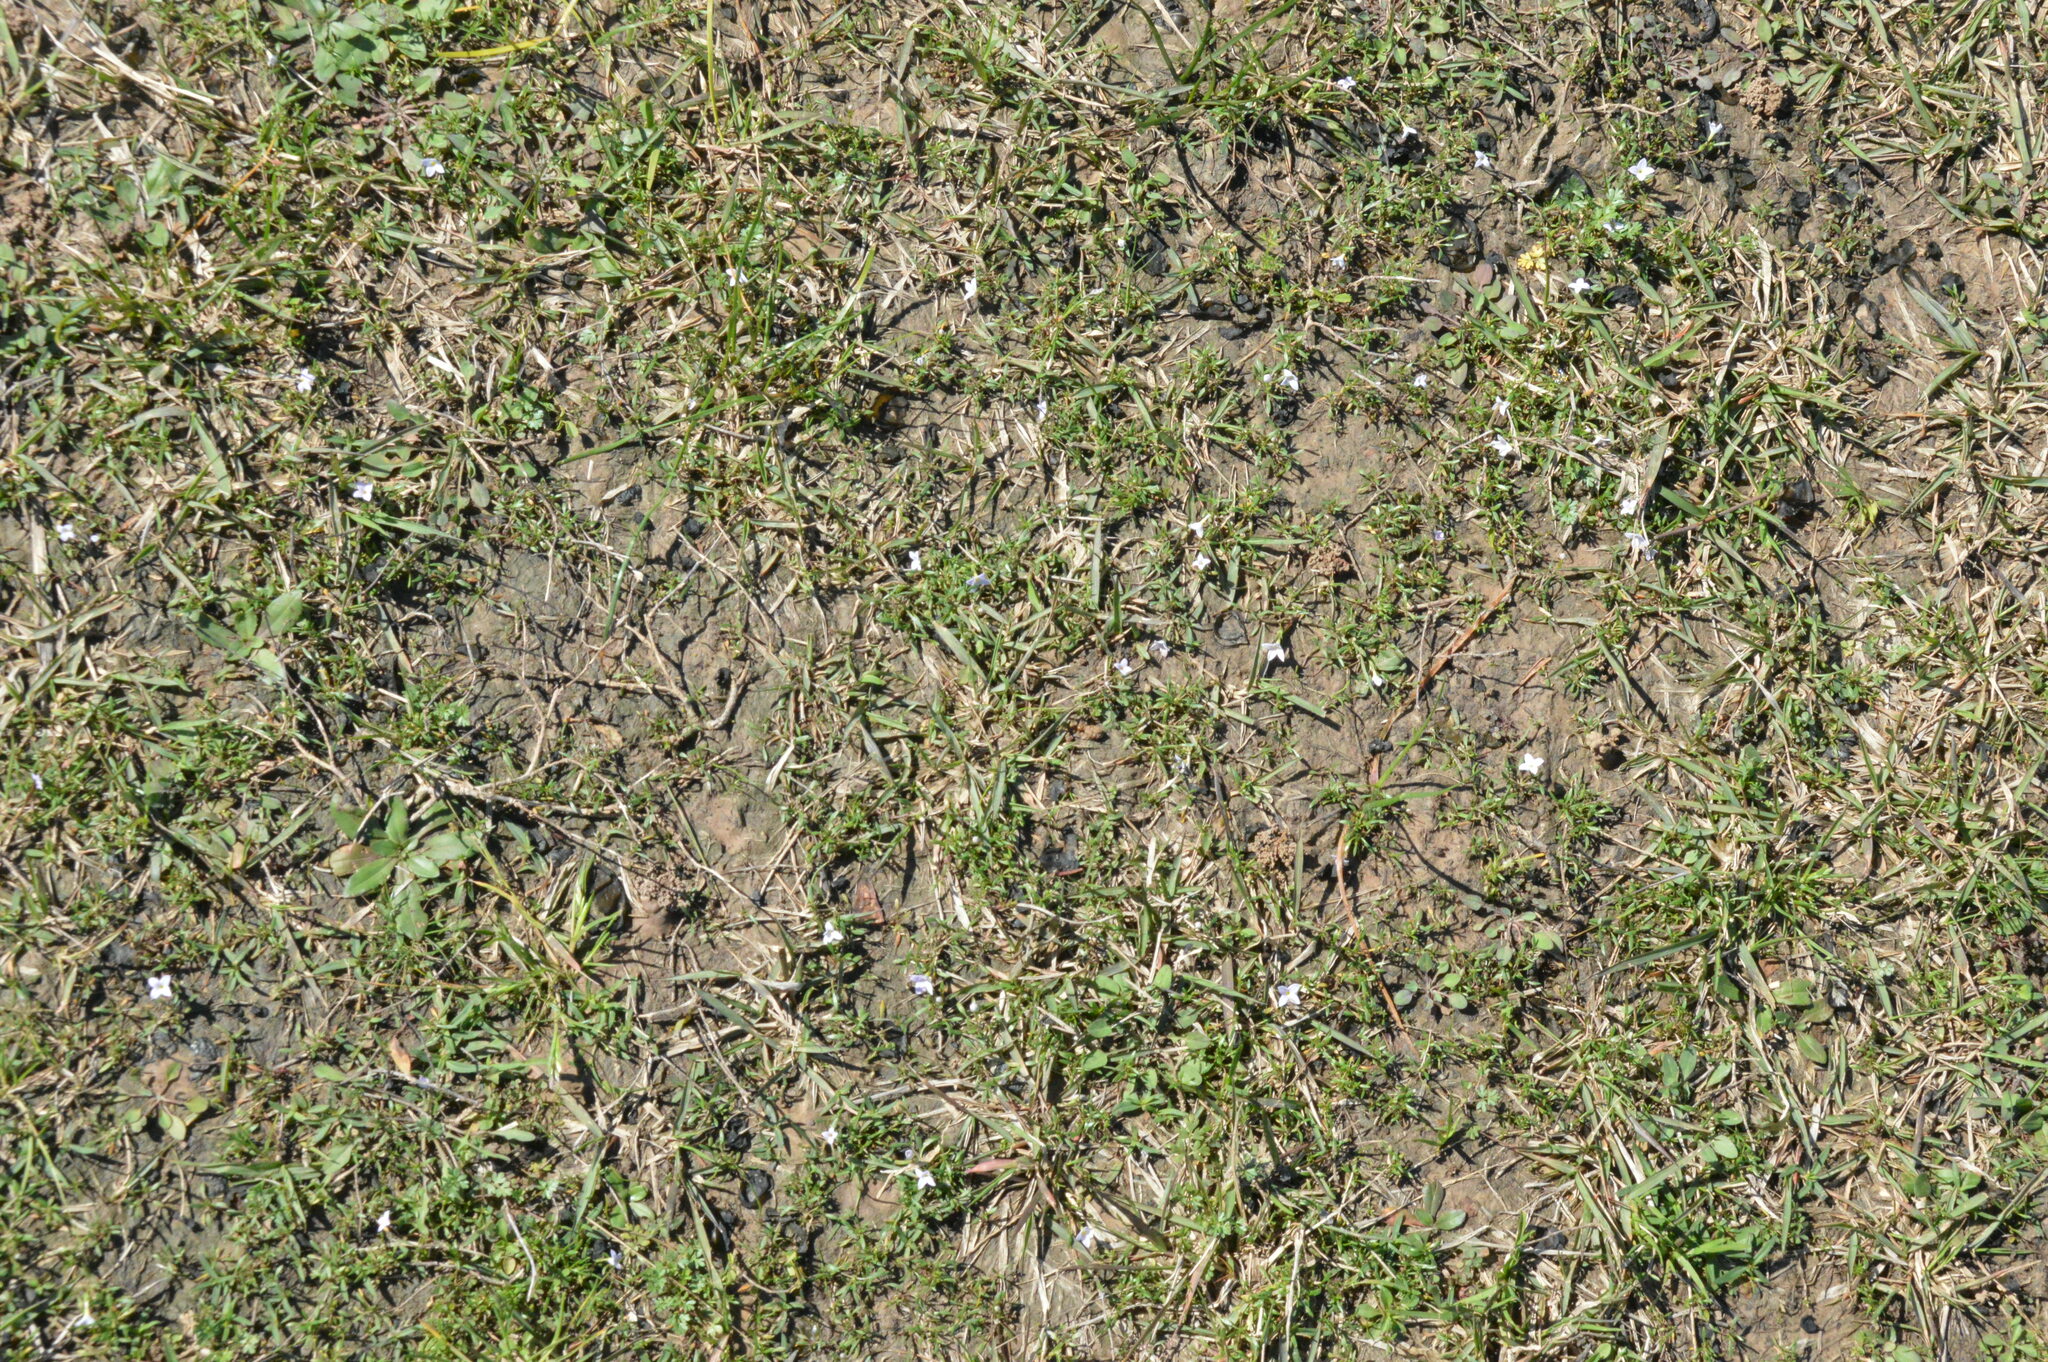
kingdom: Plantae
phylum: Tracheophyta
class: Magnoliopsida
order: Gentianales
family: Rubiaceae
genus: Houstonia
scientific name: Houstonia rosea
